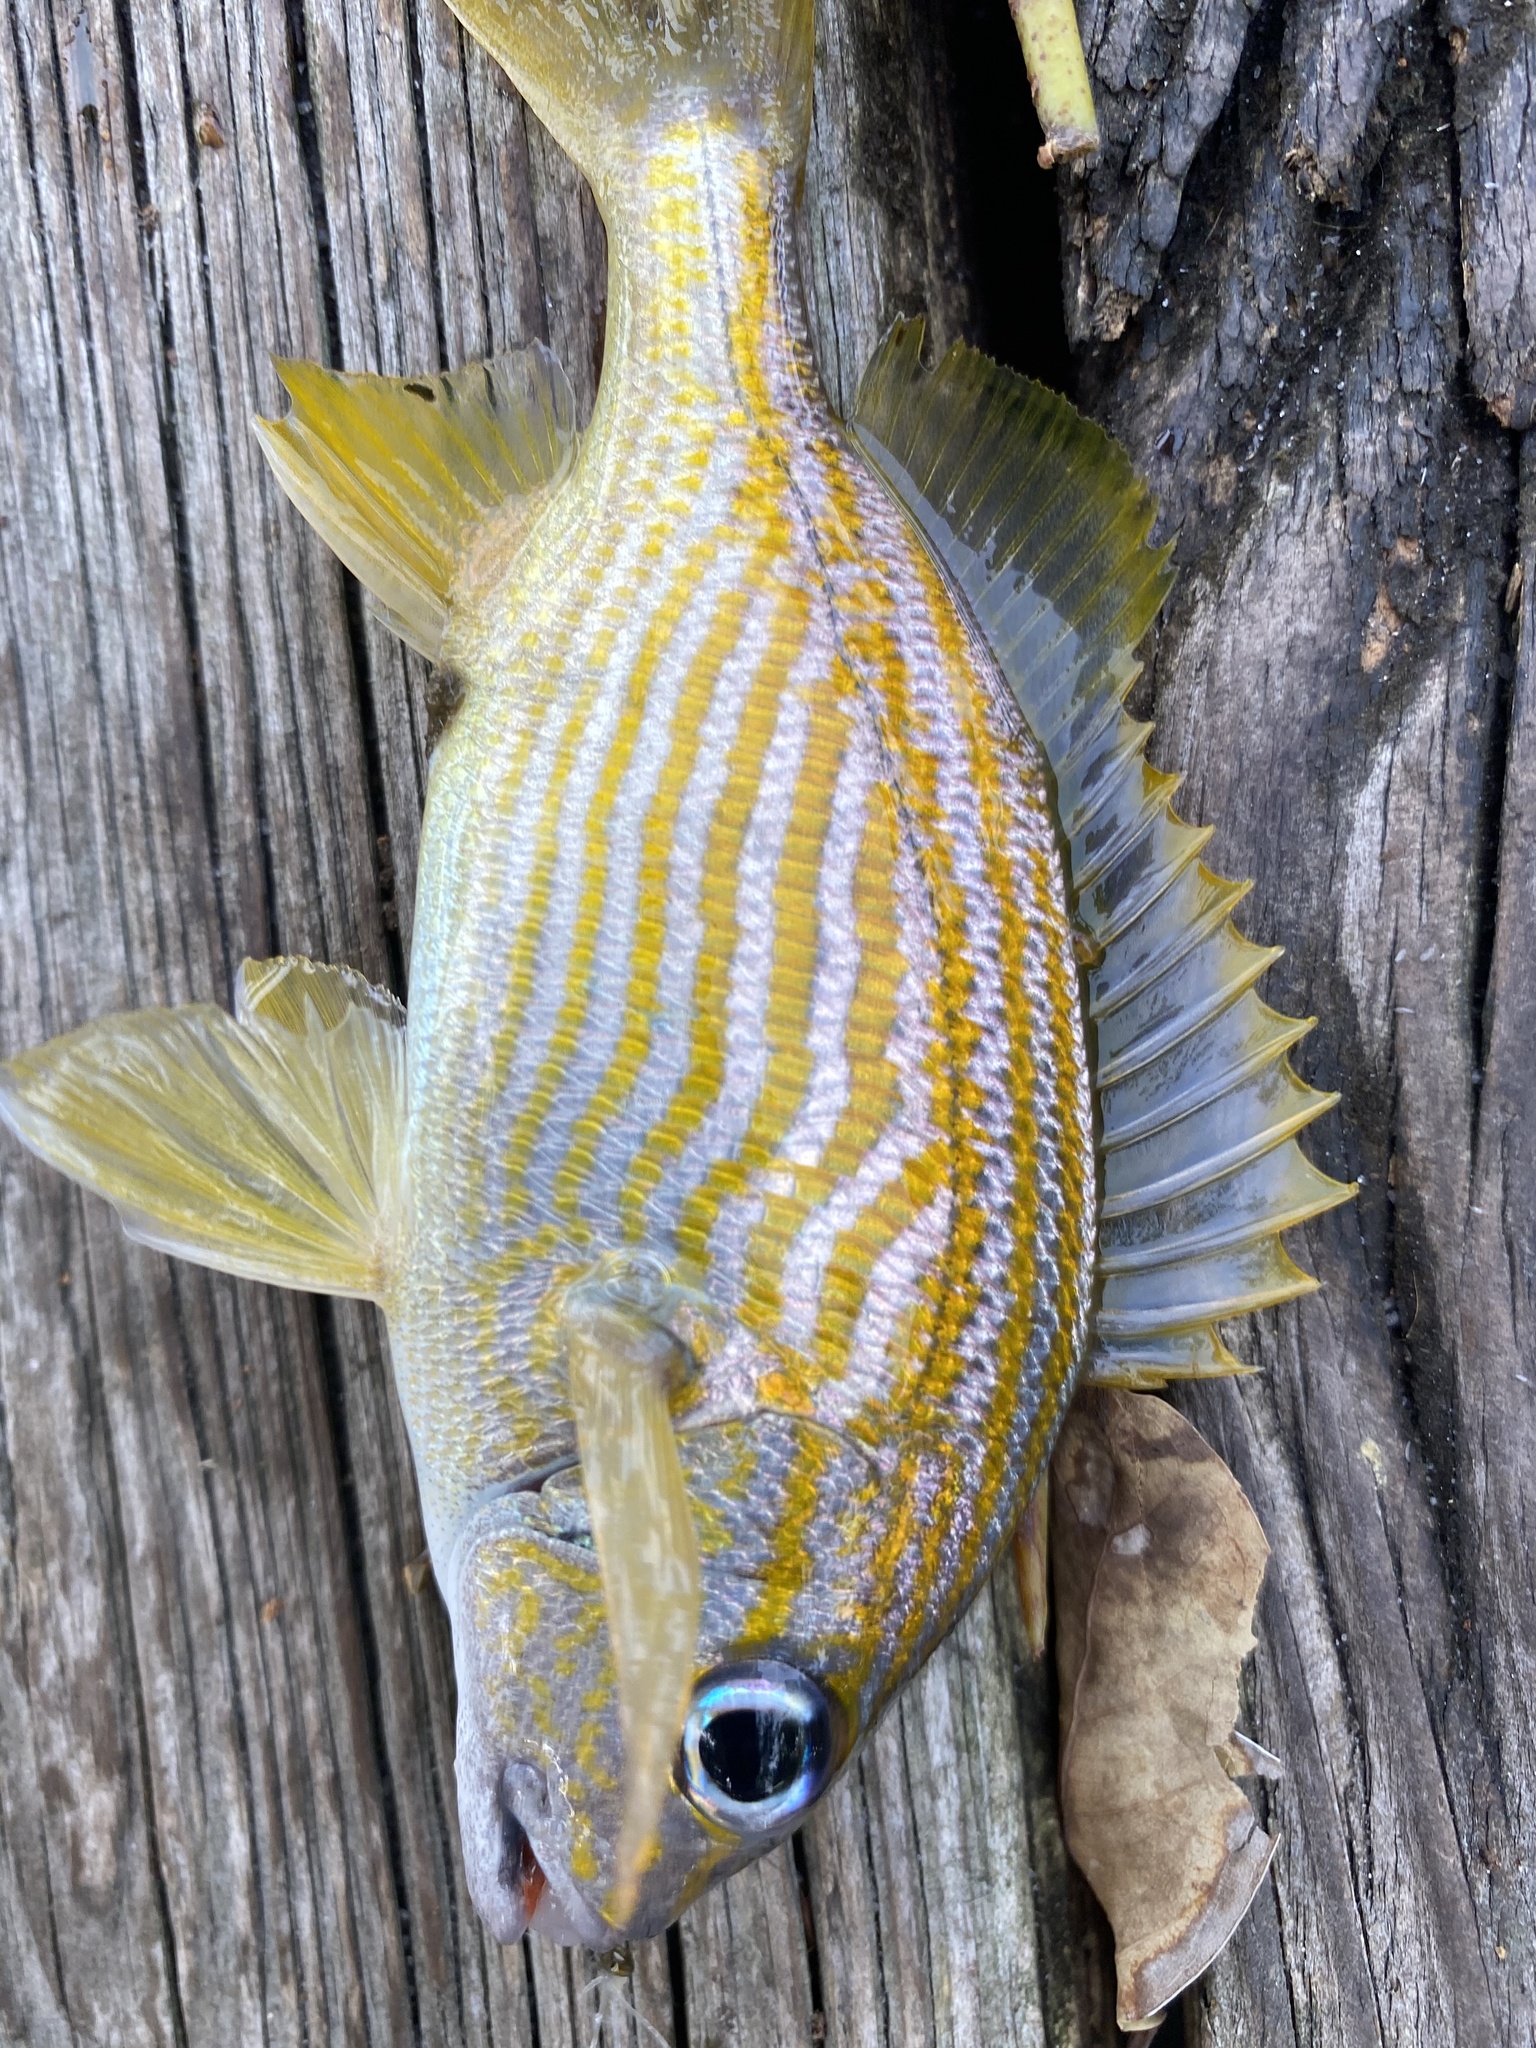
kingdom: Animalia
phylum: Chordata
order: Perciformes
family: Haemulidae
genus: Haemulon
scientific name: Haemulon flavolineatum
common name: French grunt
